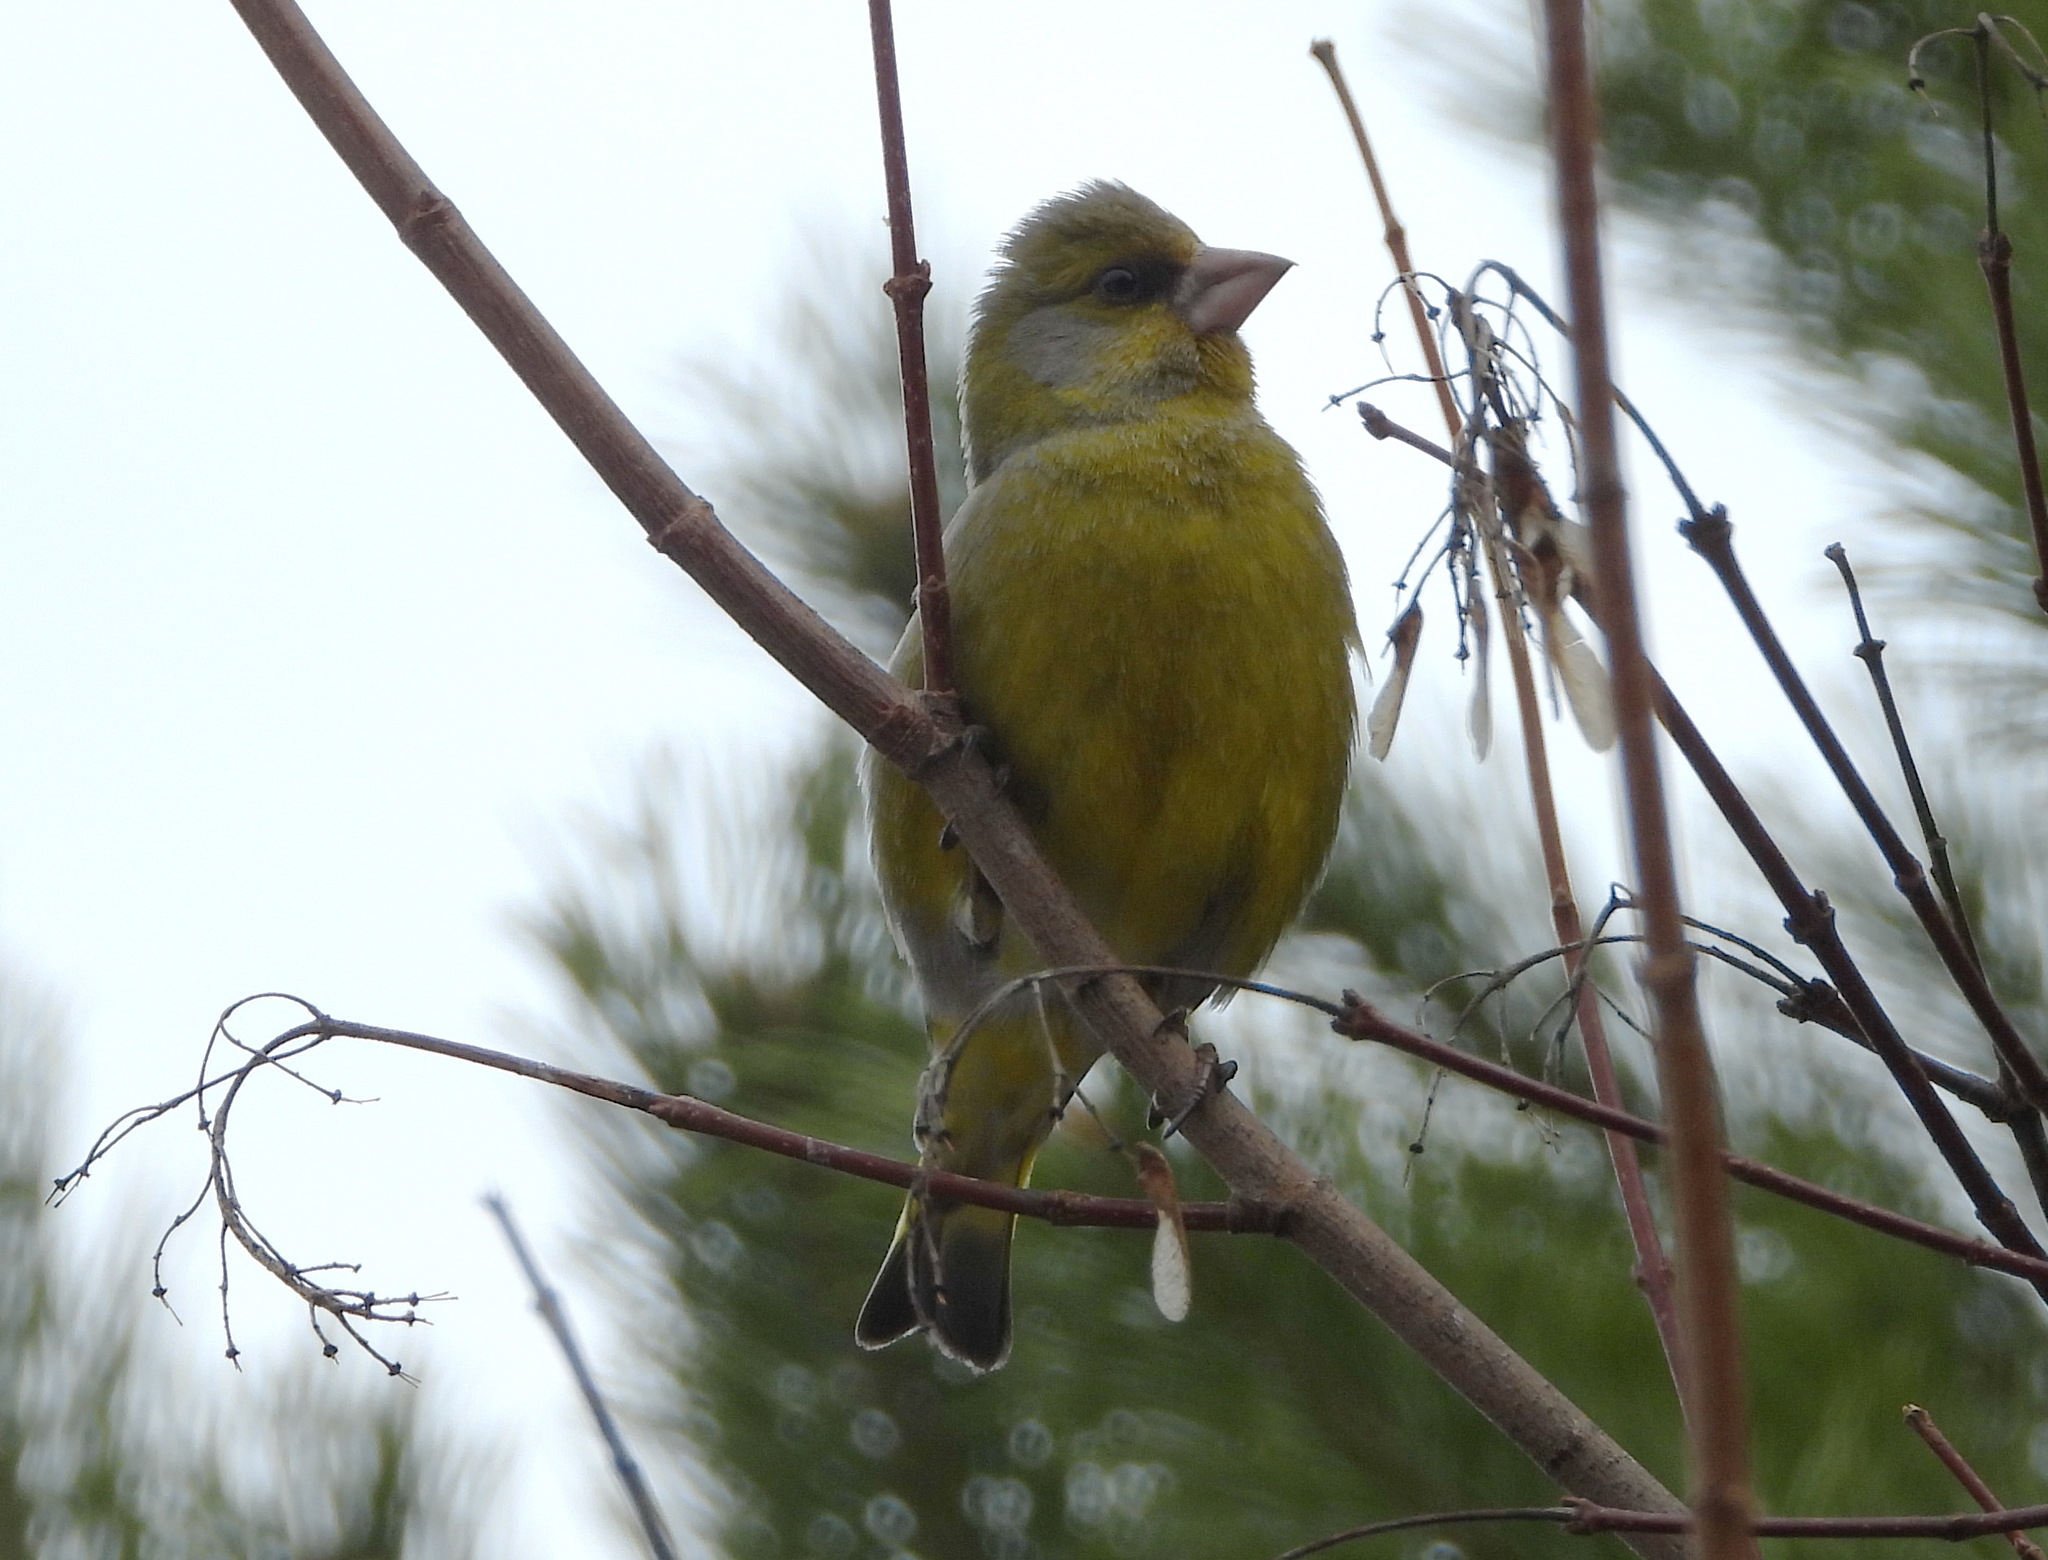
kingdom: Plantae
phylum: Tracheophyta
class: Liliopsida
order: Poales
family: Poaceae
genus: Chloris
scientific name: Chloris chloris
